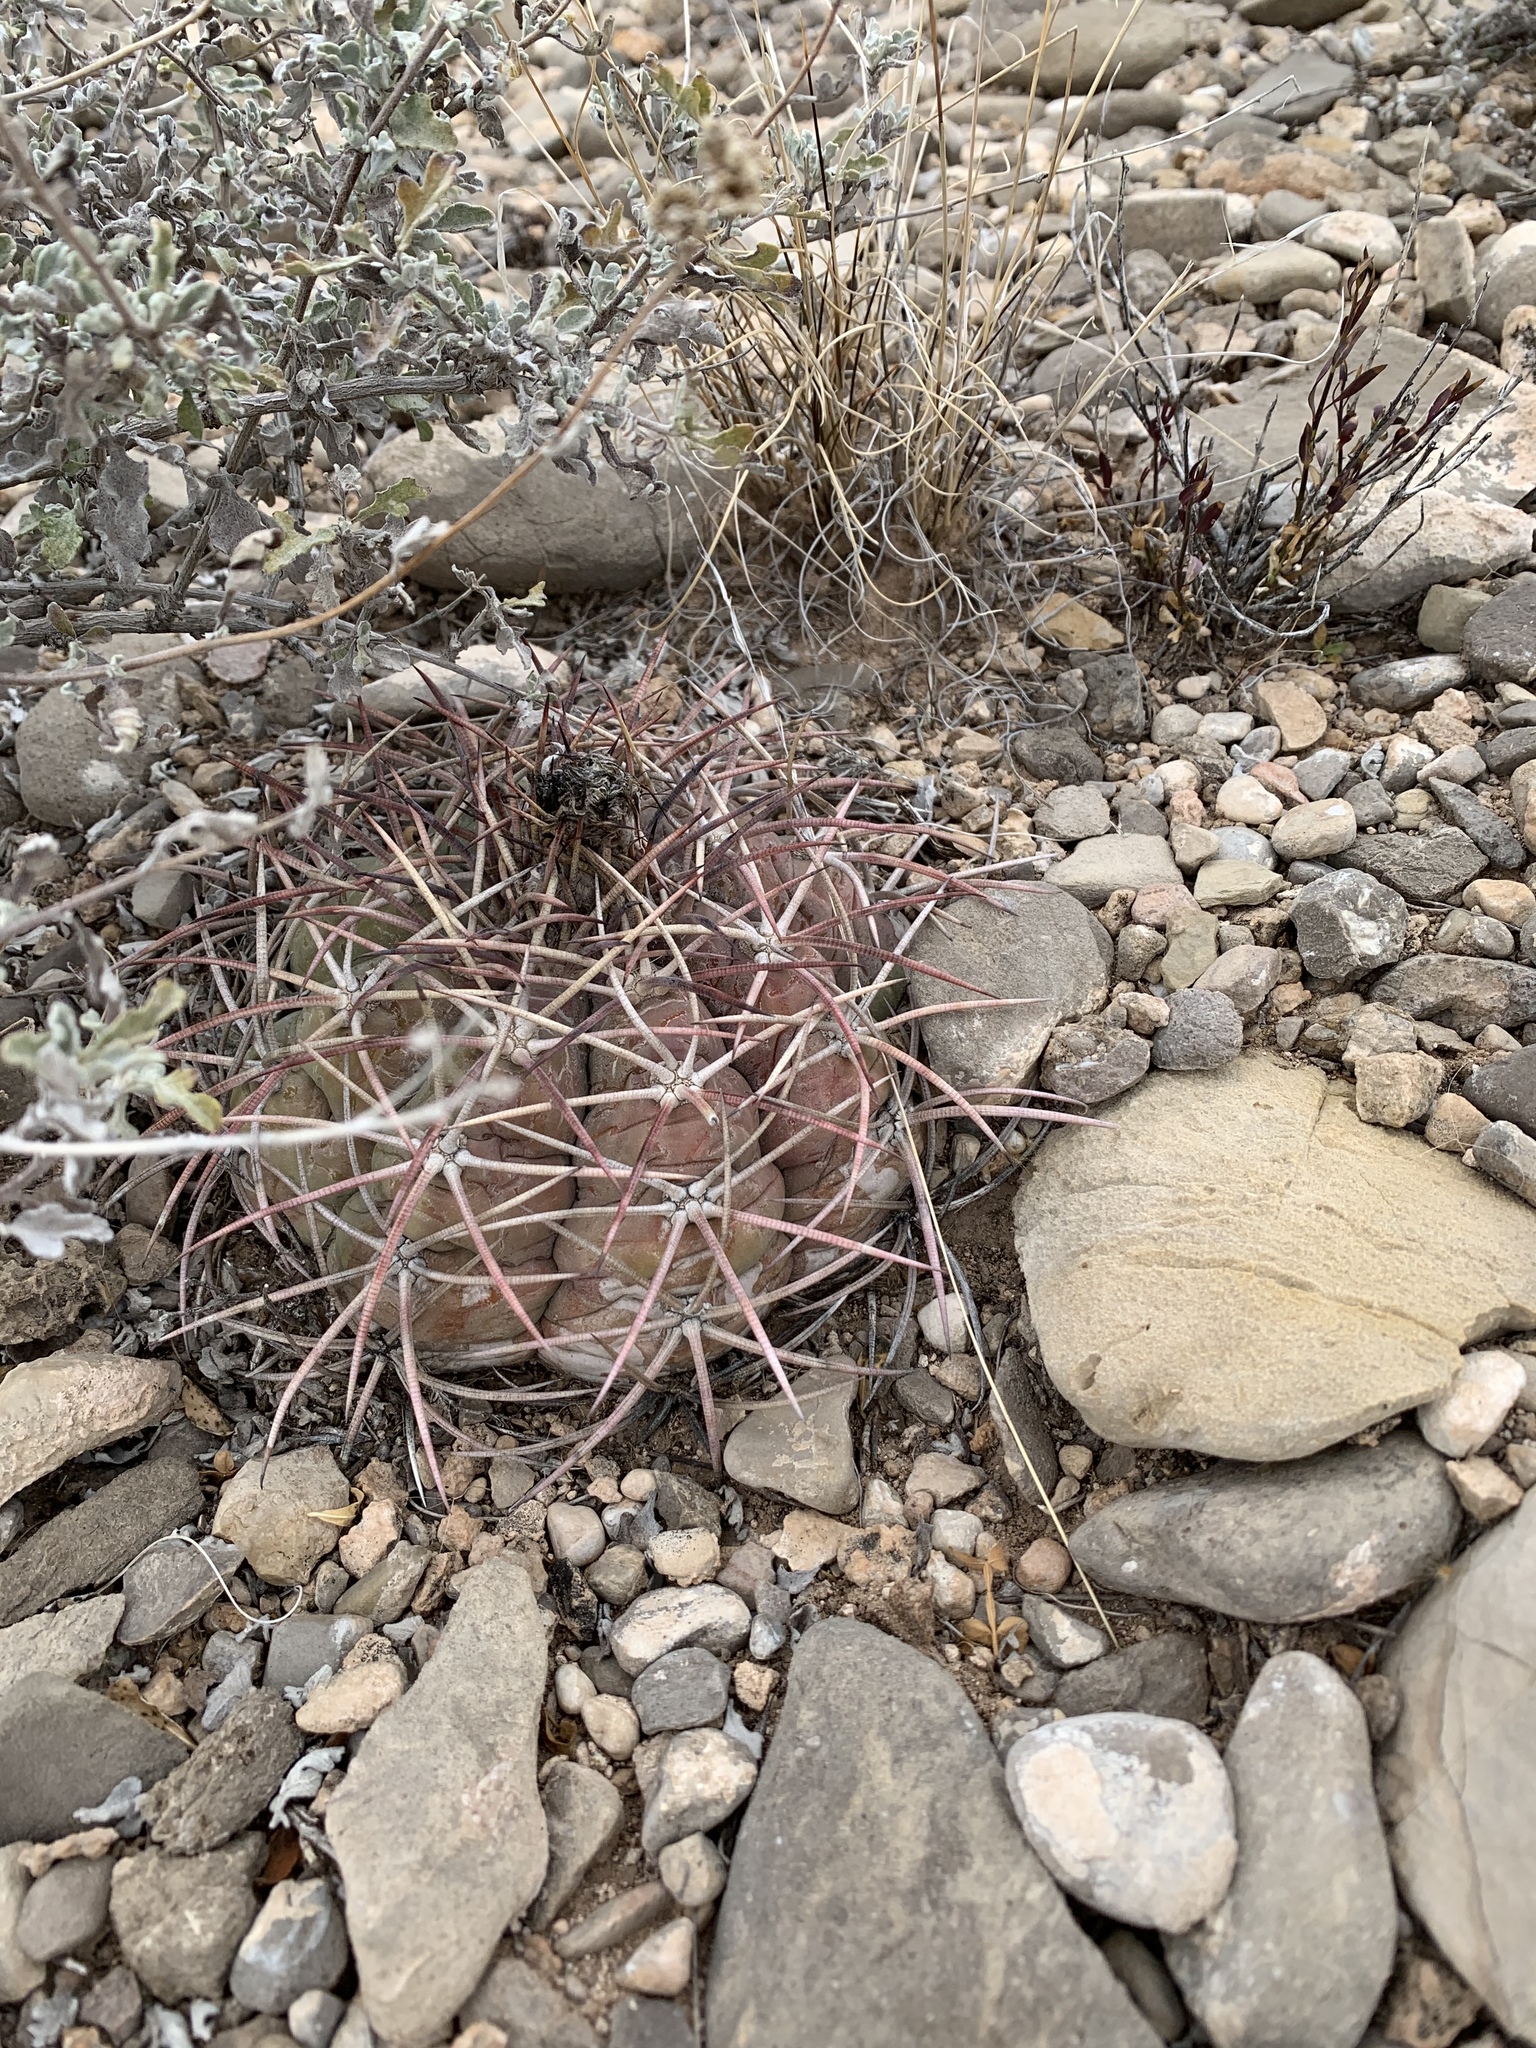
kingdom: Plantae
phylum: Tracheophyta
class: Magnoliopsida
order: Caryophyllales
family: Cactaceae
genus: Echinocactus
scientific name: Echinocactus horizonthalonius
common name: Devilshead
